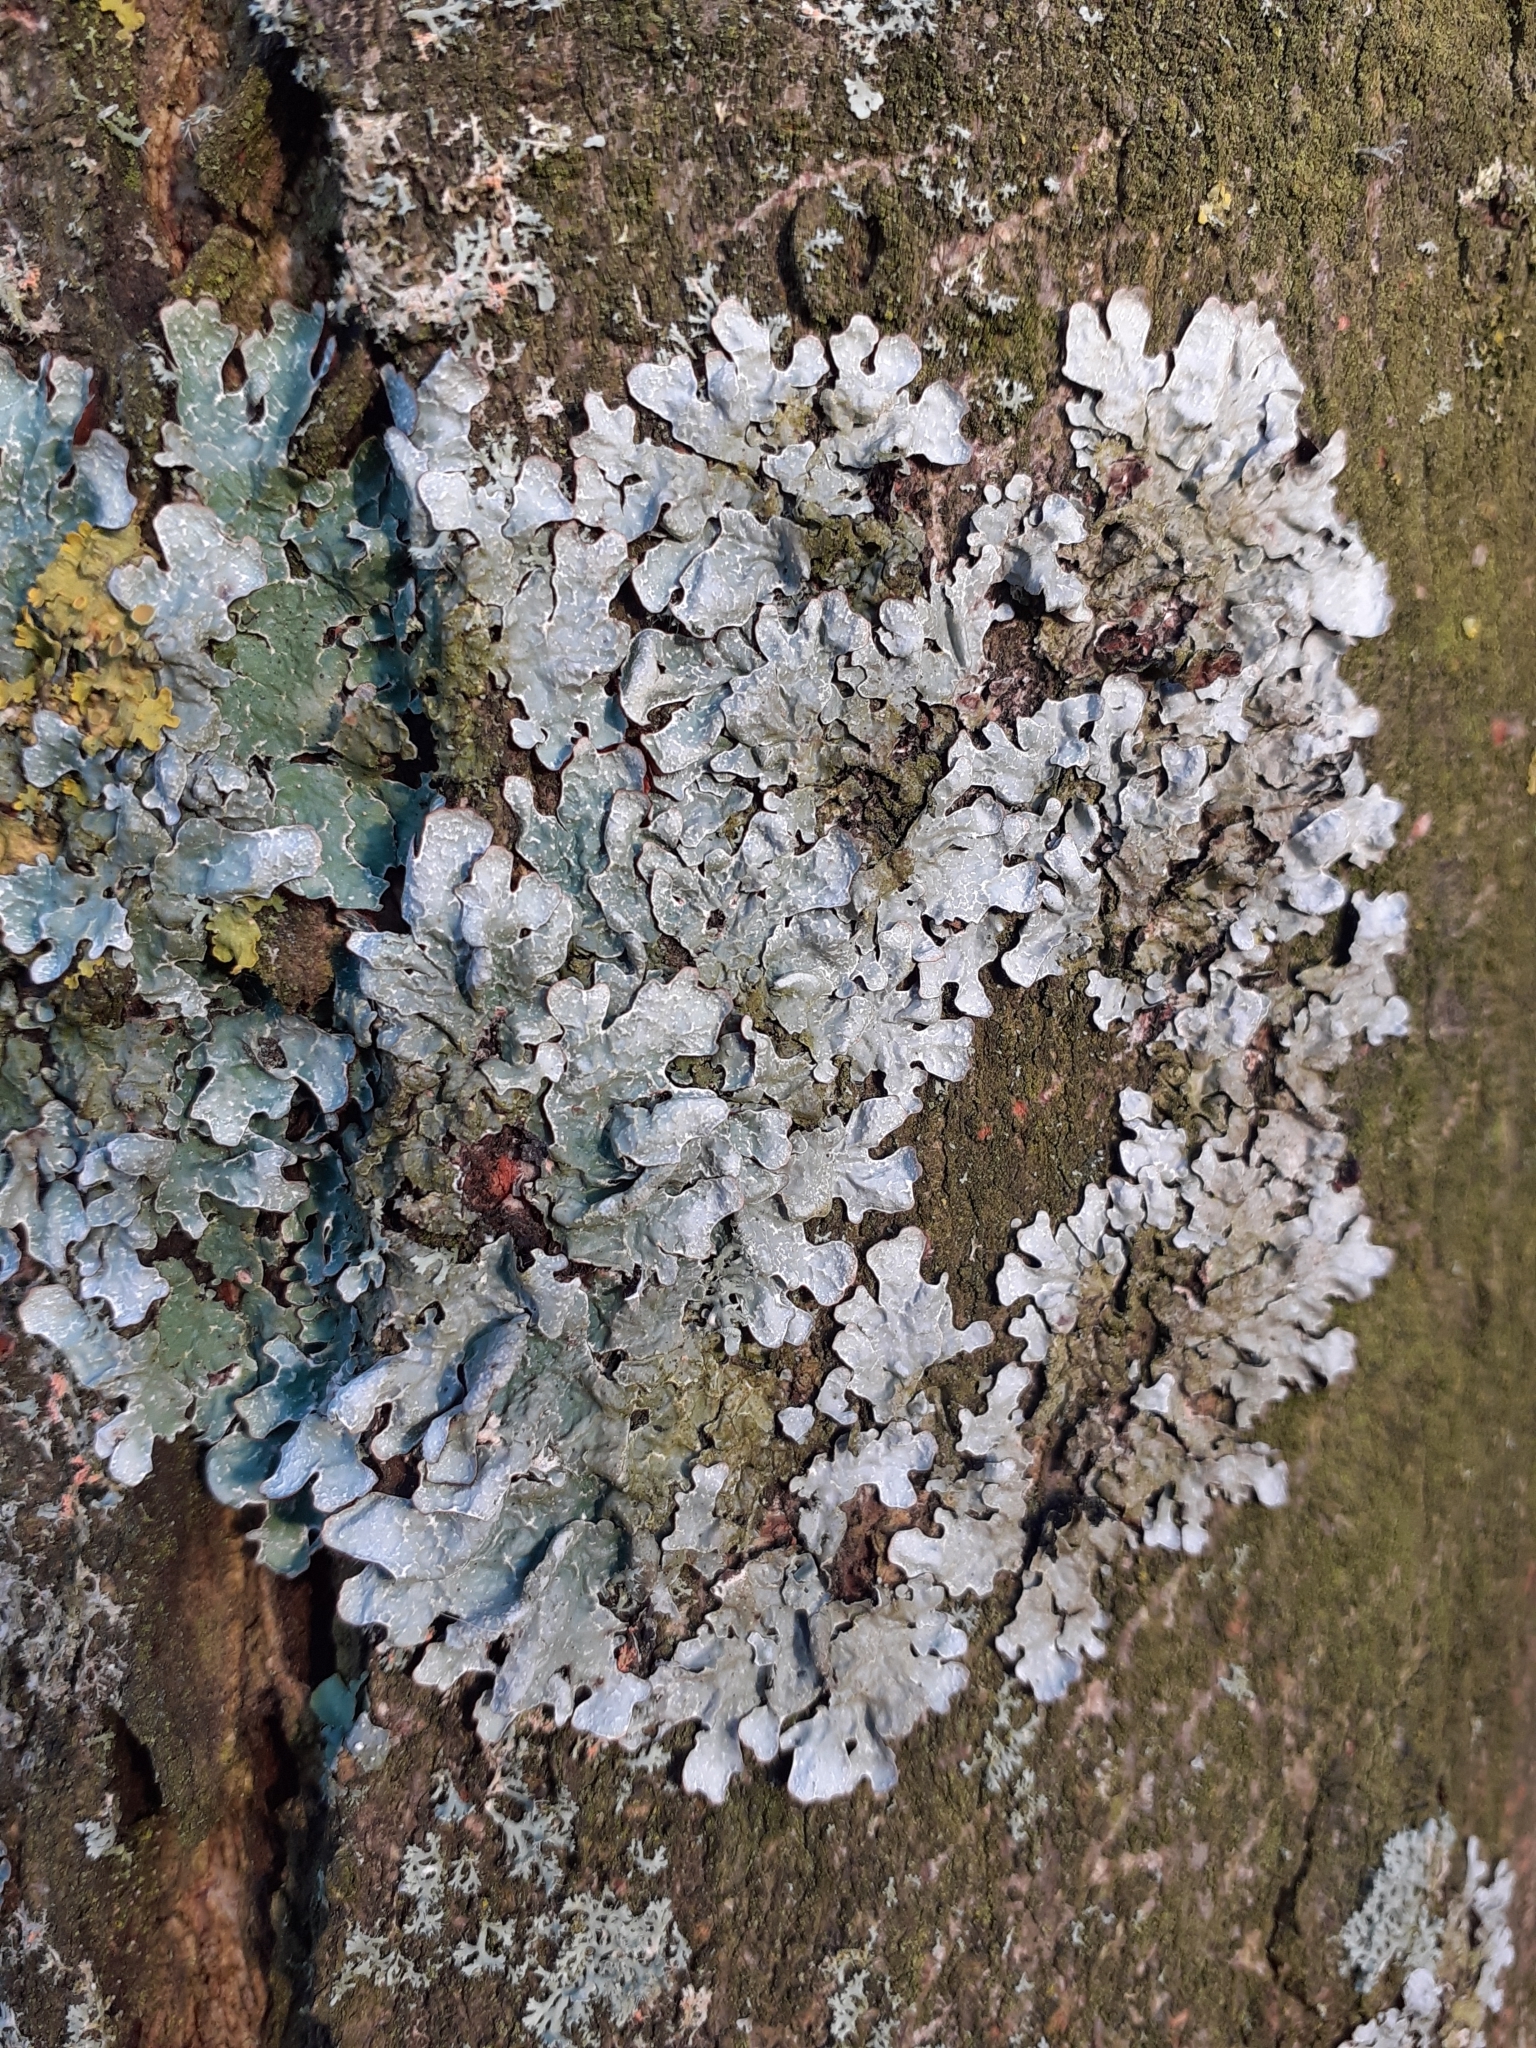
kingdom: Fungi
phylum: Ascomycota
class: Lecanoromycetes
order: Lecanorales
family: Parmeliaceae
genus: Parmelia
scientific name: Parmelia sulcata
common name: Netted shield lichen
